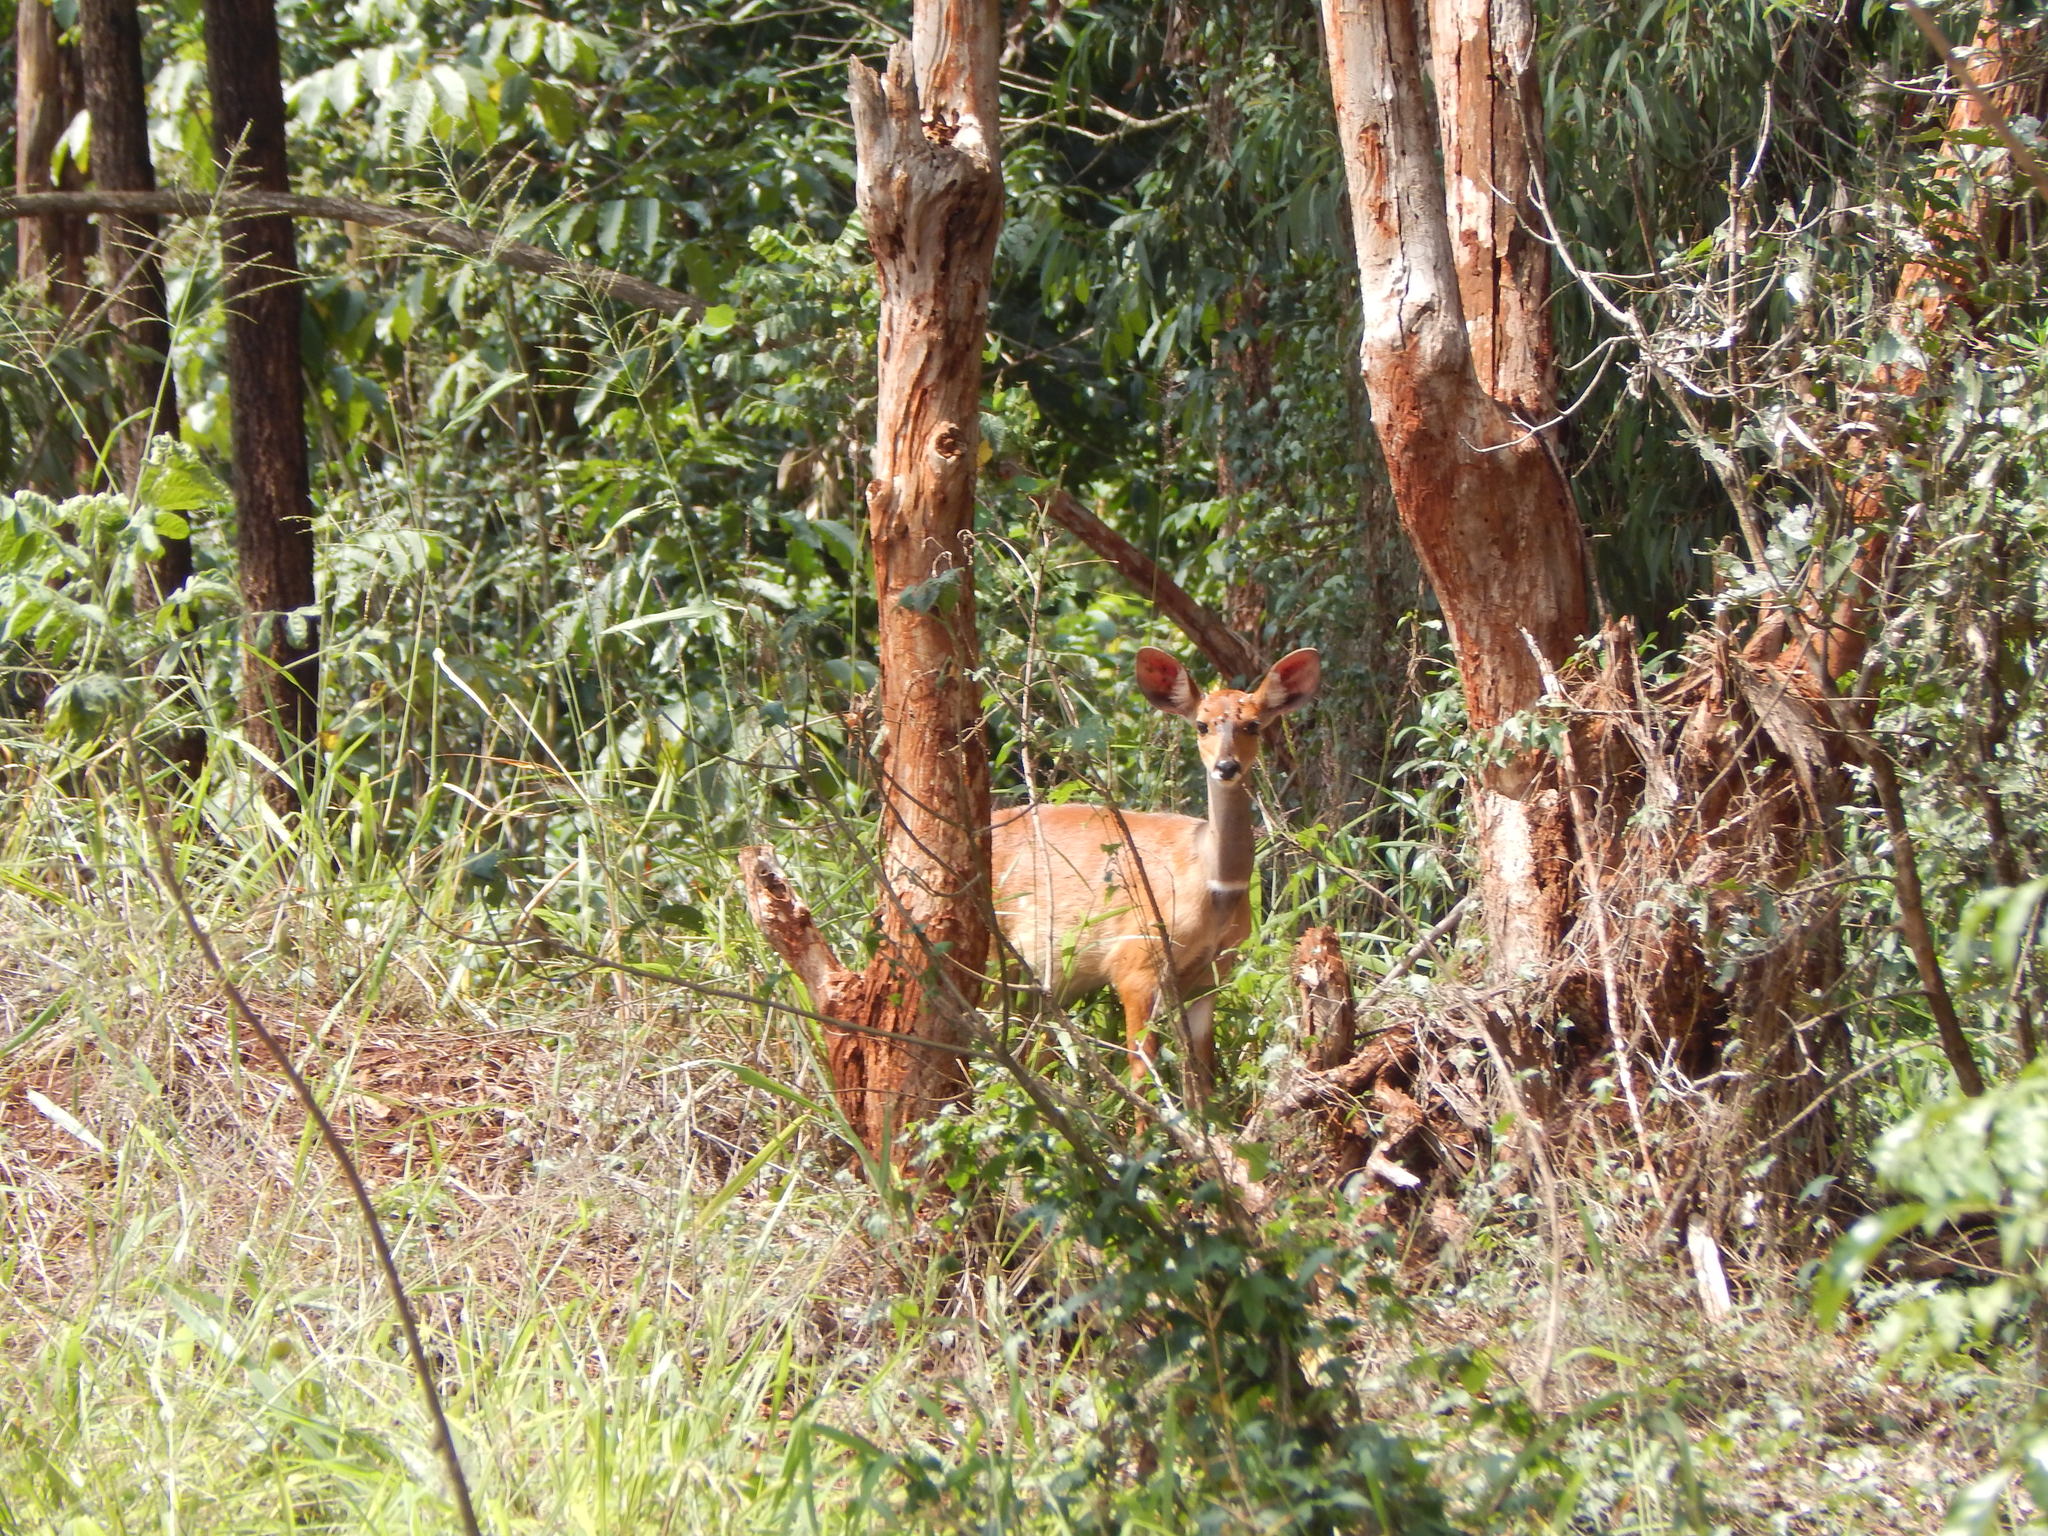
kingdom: Animalia
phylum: Chordata
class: Mammalia
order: Artiodactyla
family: Bovidae
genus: Tragelaphus
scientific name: Tragelaphus scriptus
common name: Bushbuck
